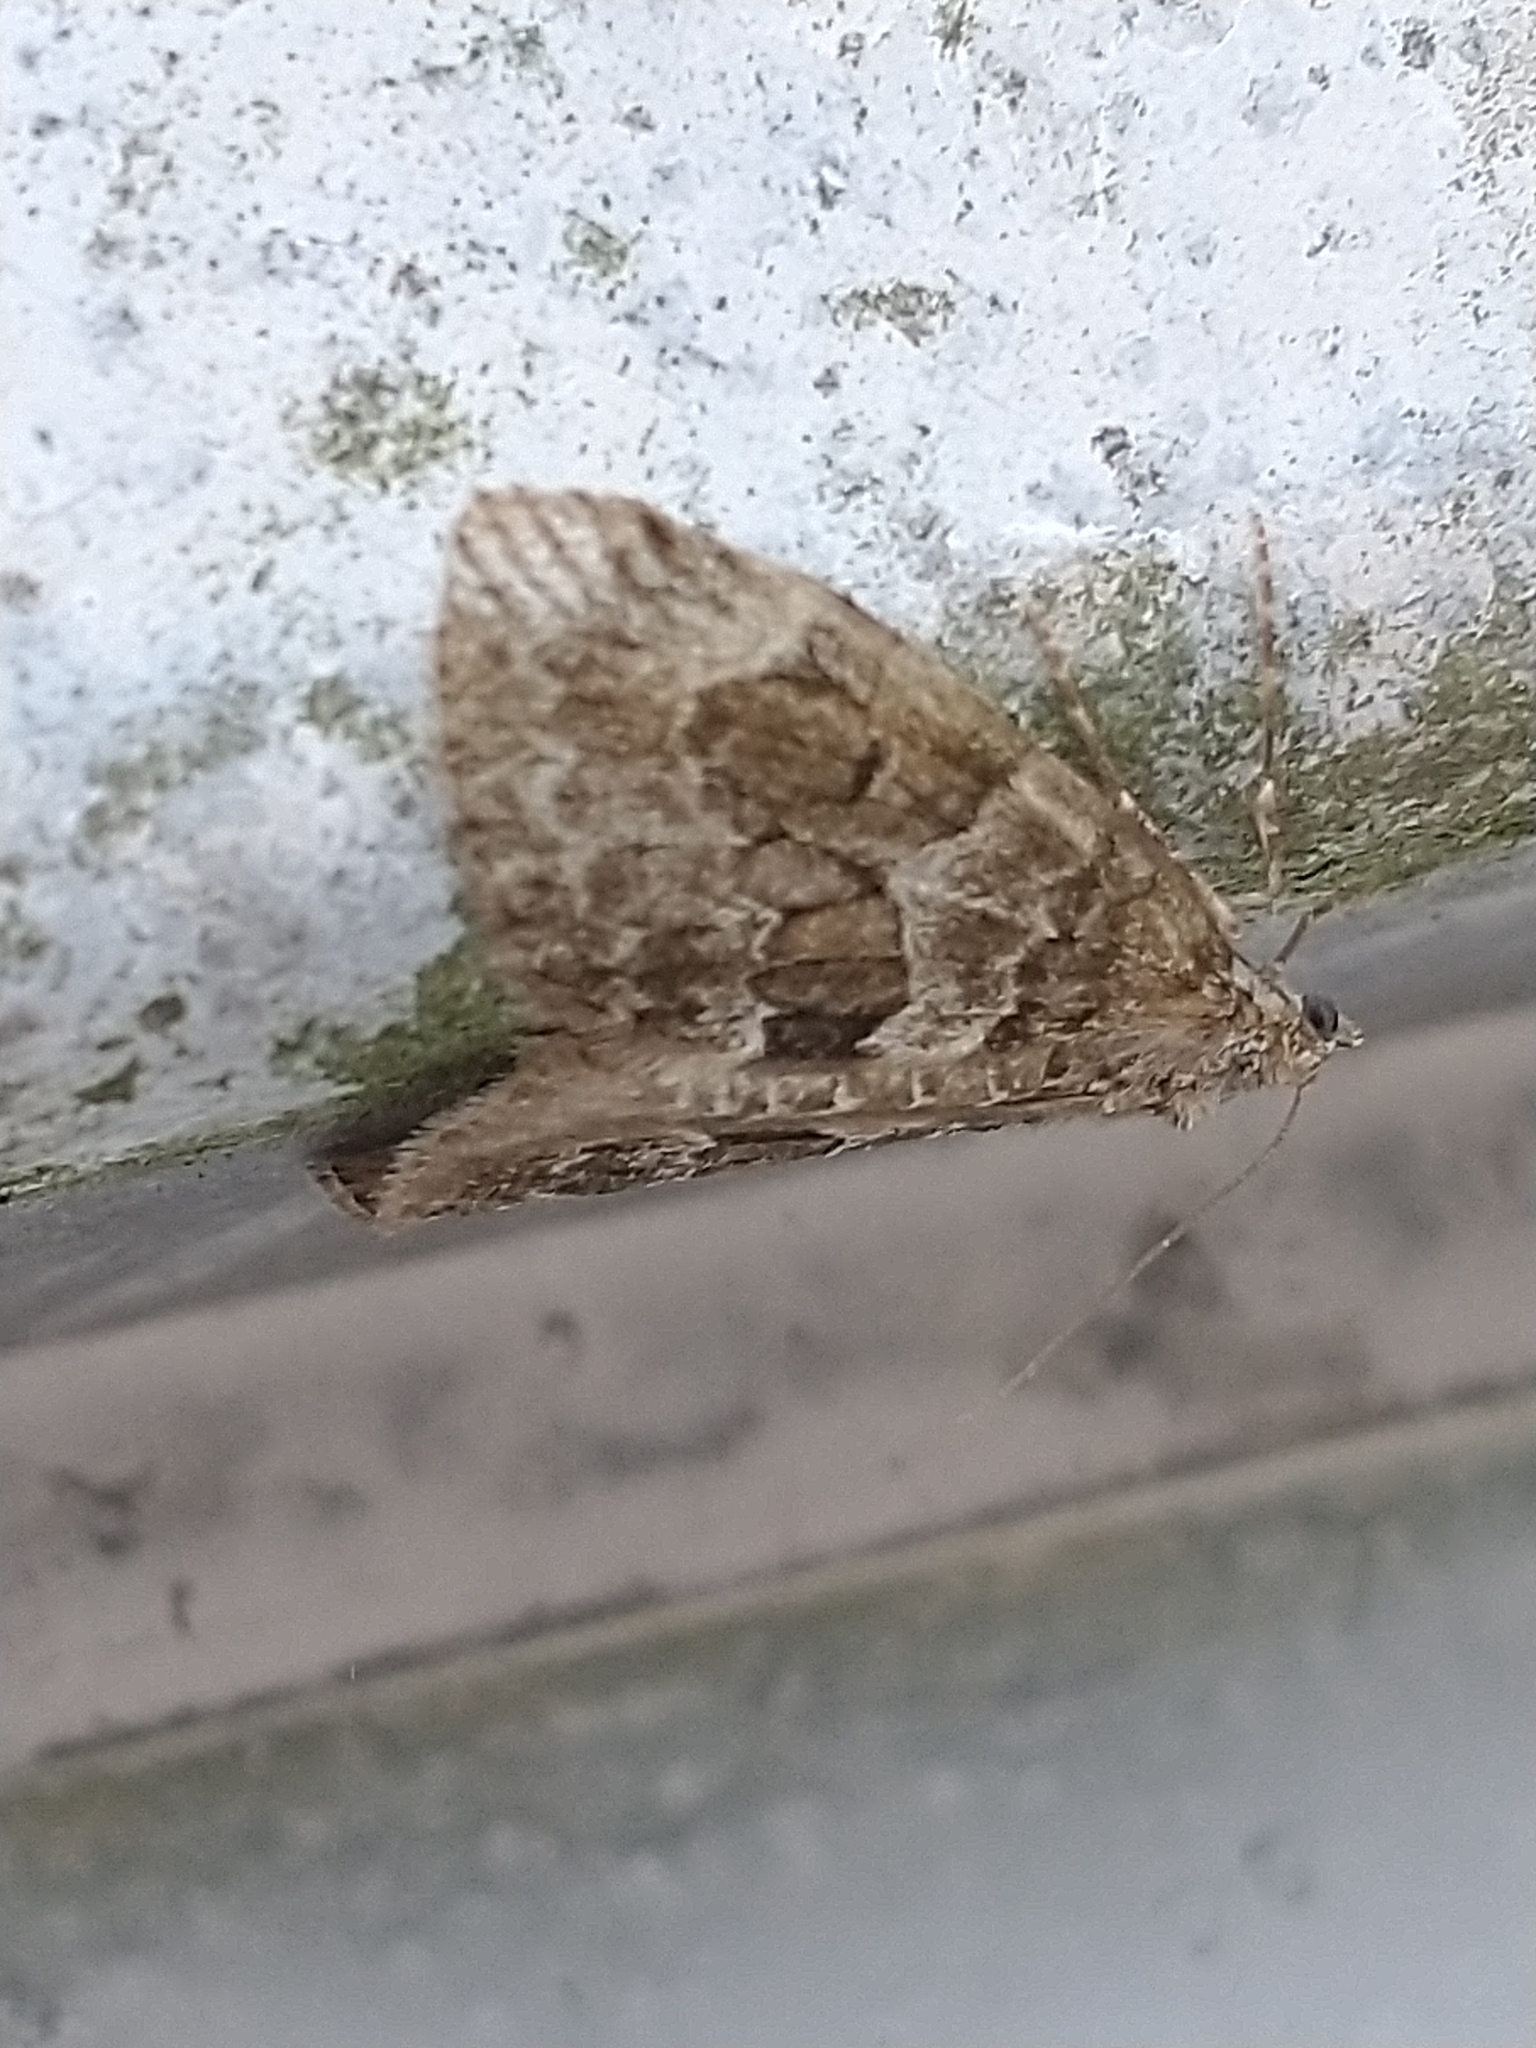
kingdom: Animalia
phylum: Arthropoda
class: Insecta
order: Lepidoptera
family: Geometridae
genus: Thera
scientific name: Thera britannica
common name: Spruce carpet
